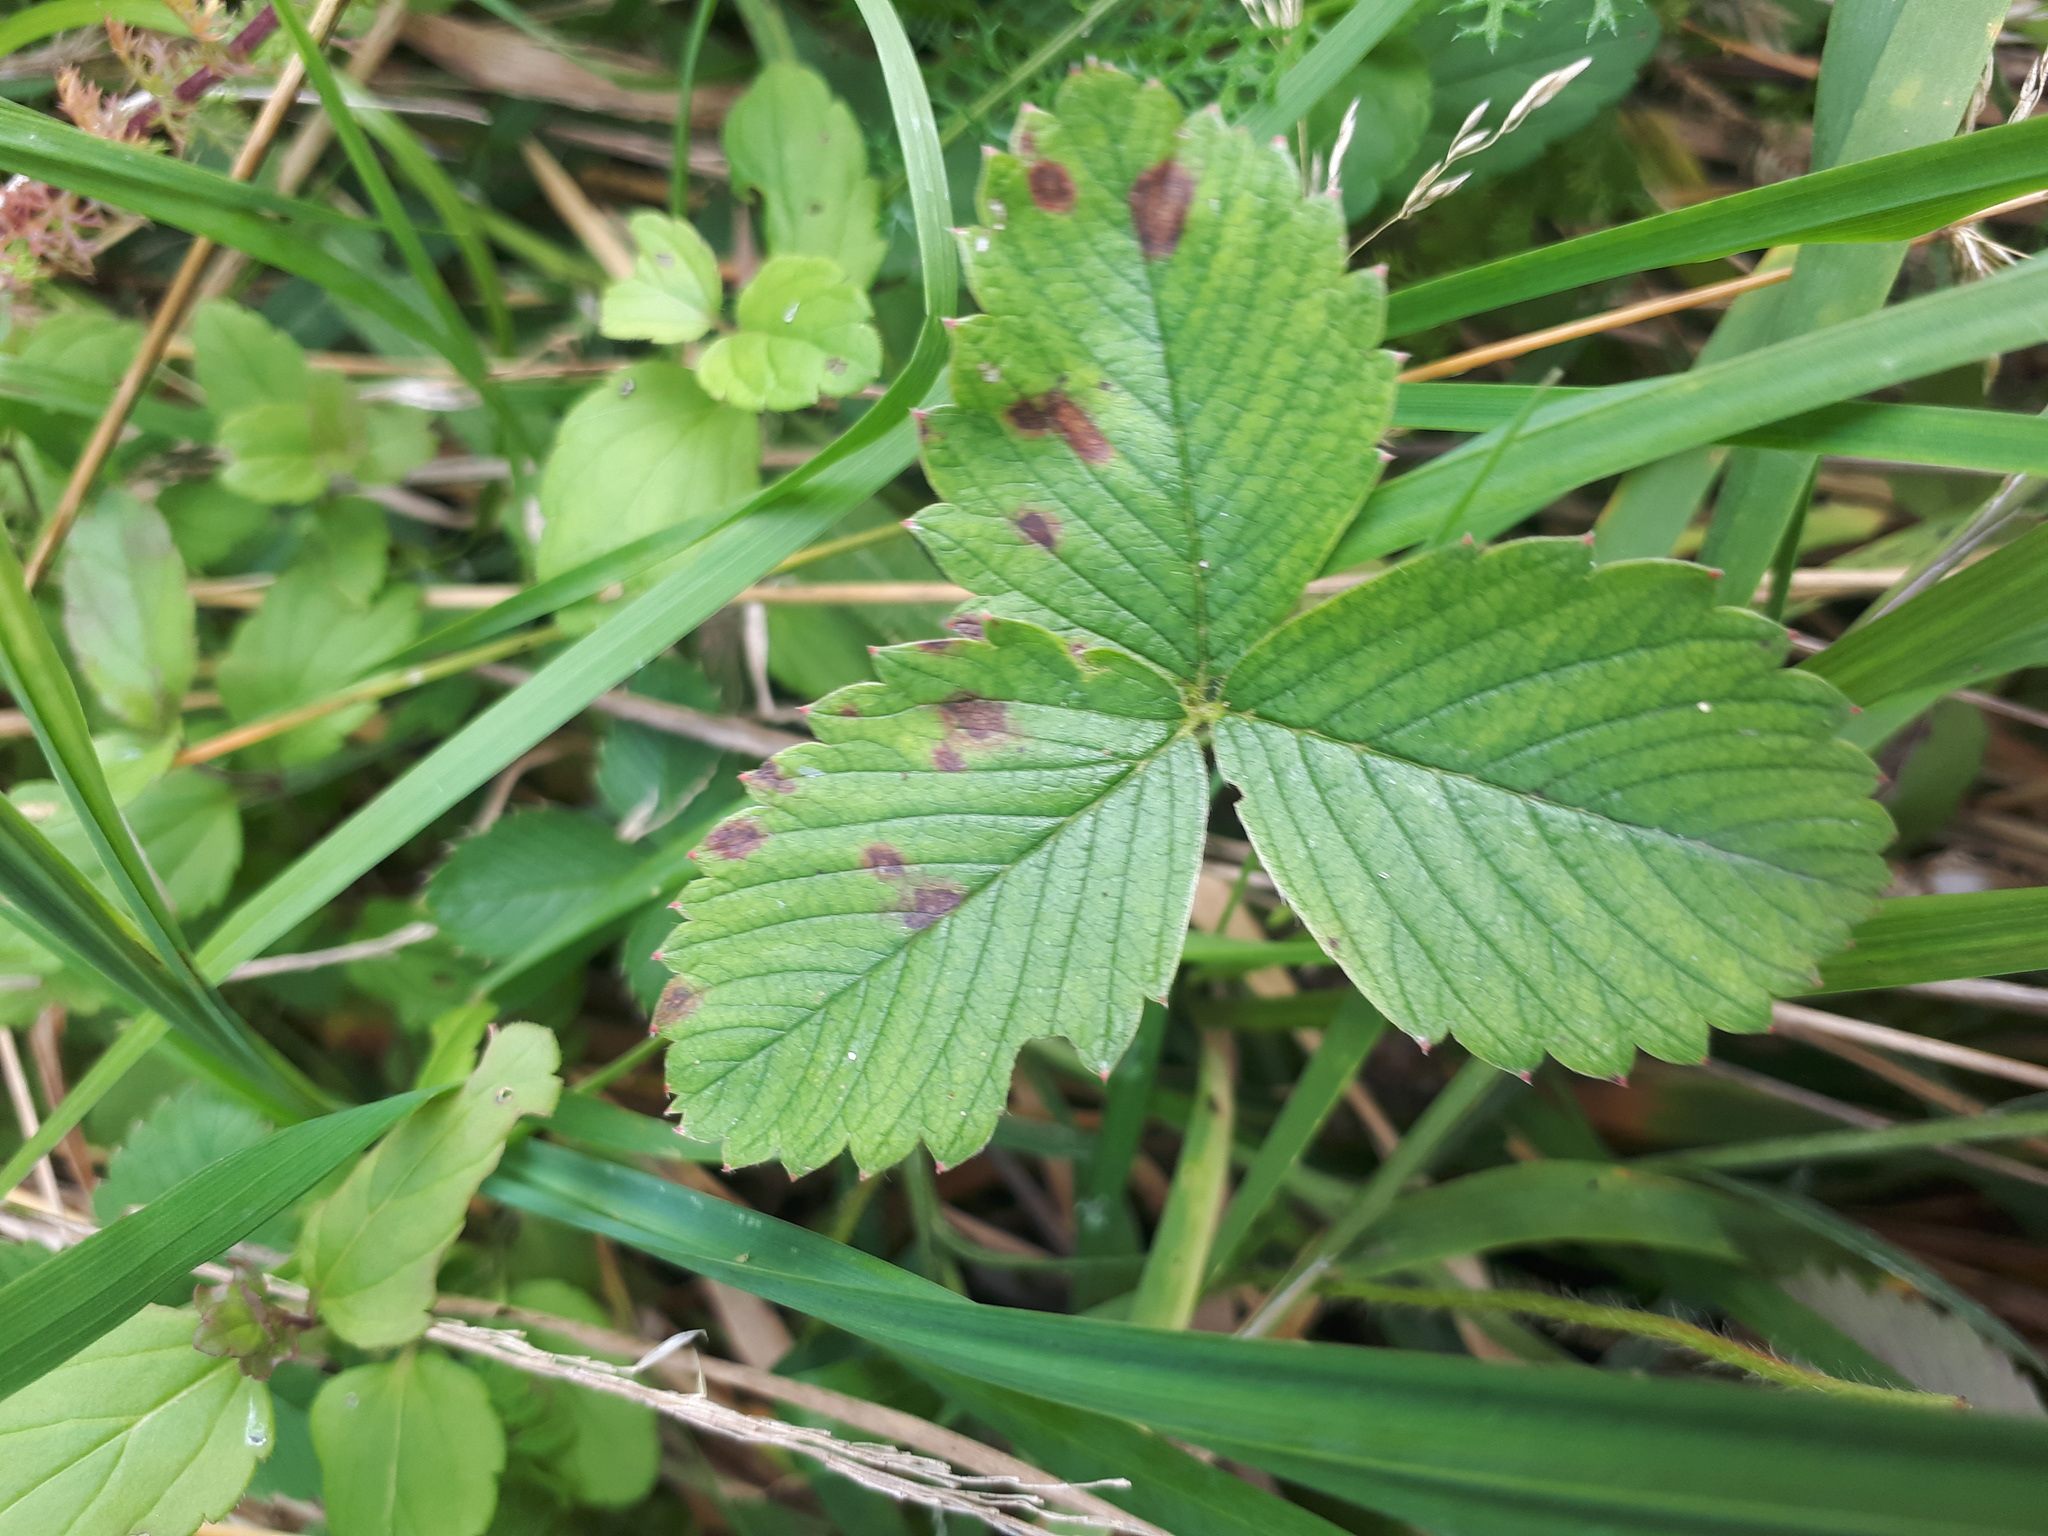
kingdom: Plantae
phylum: Tracheophyta
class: Magnoliopsida
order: Rosales
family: Rosaceae
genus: Fragaria
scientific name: Fragaria vesca
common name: Wild strawberry
